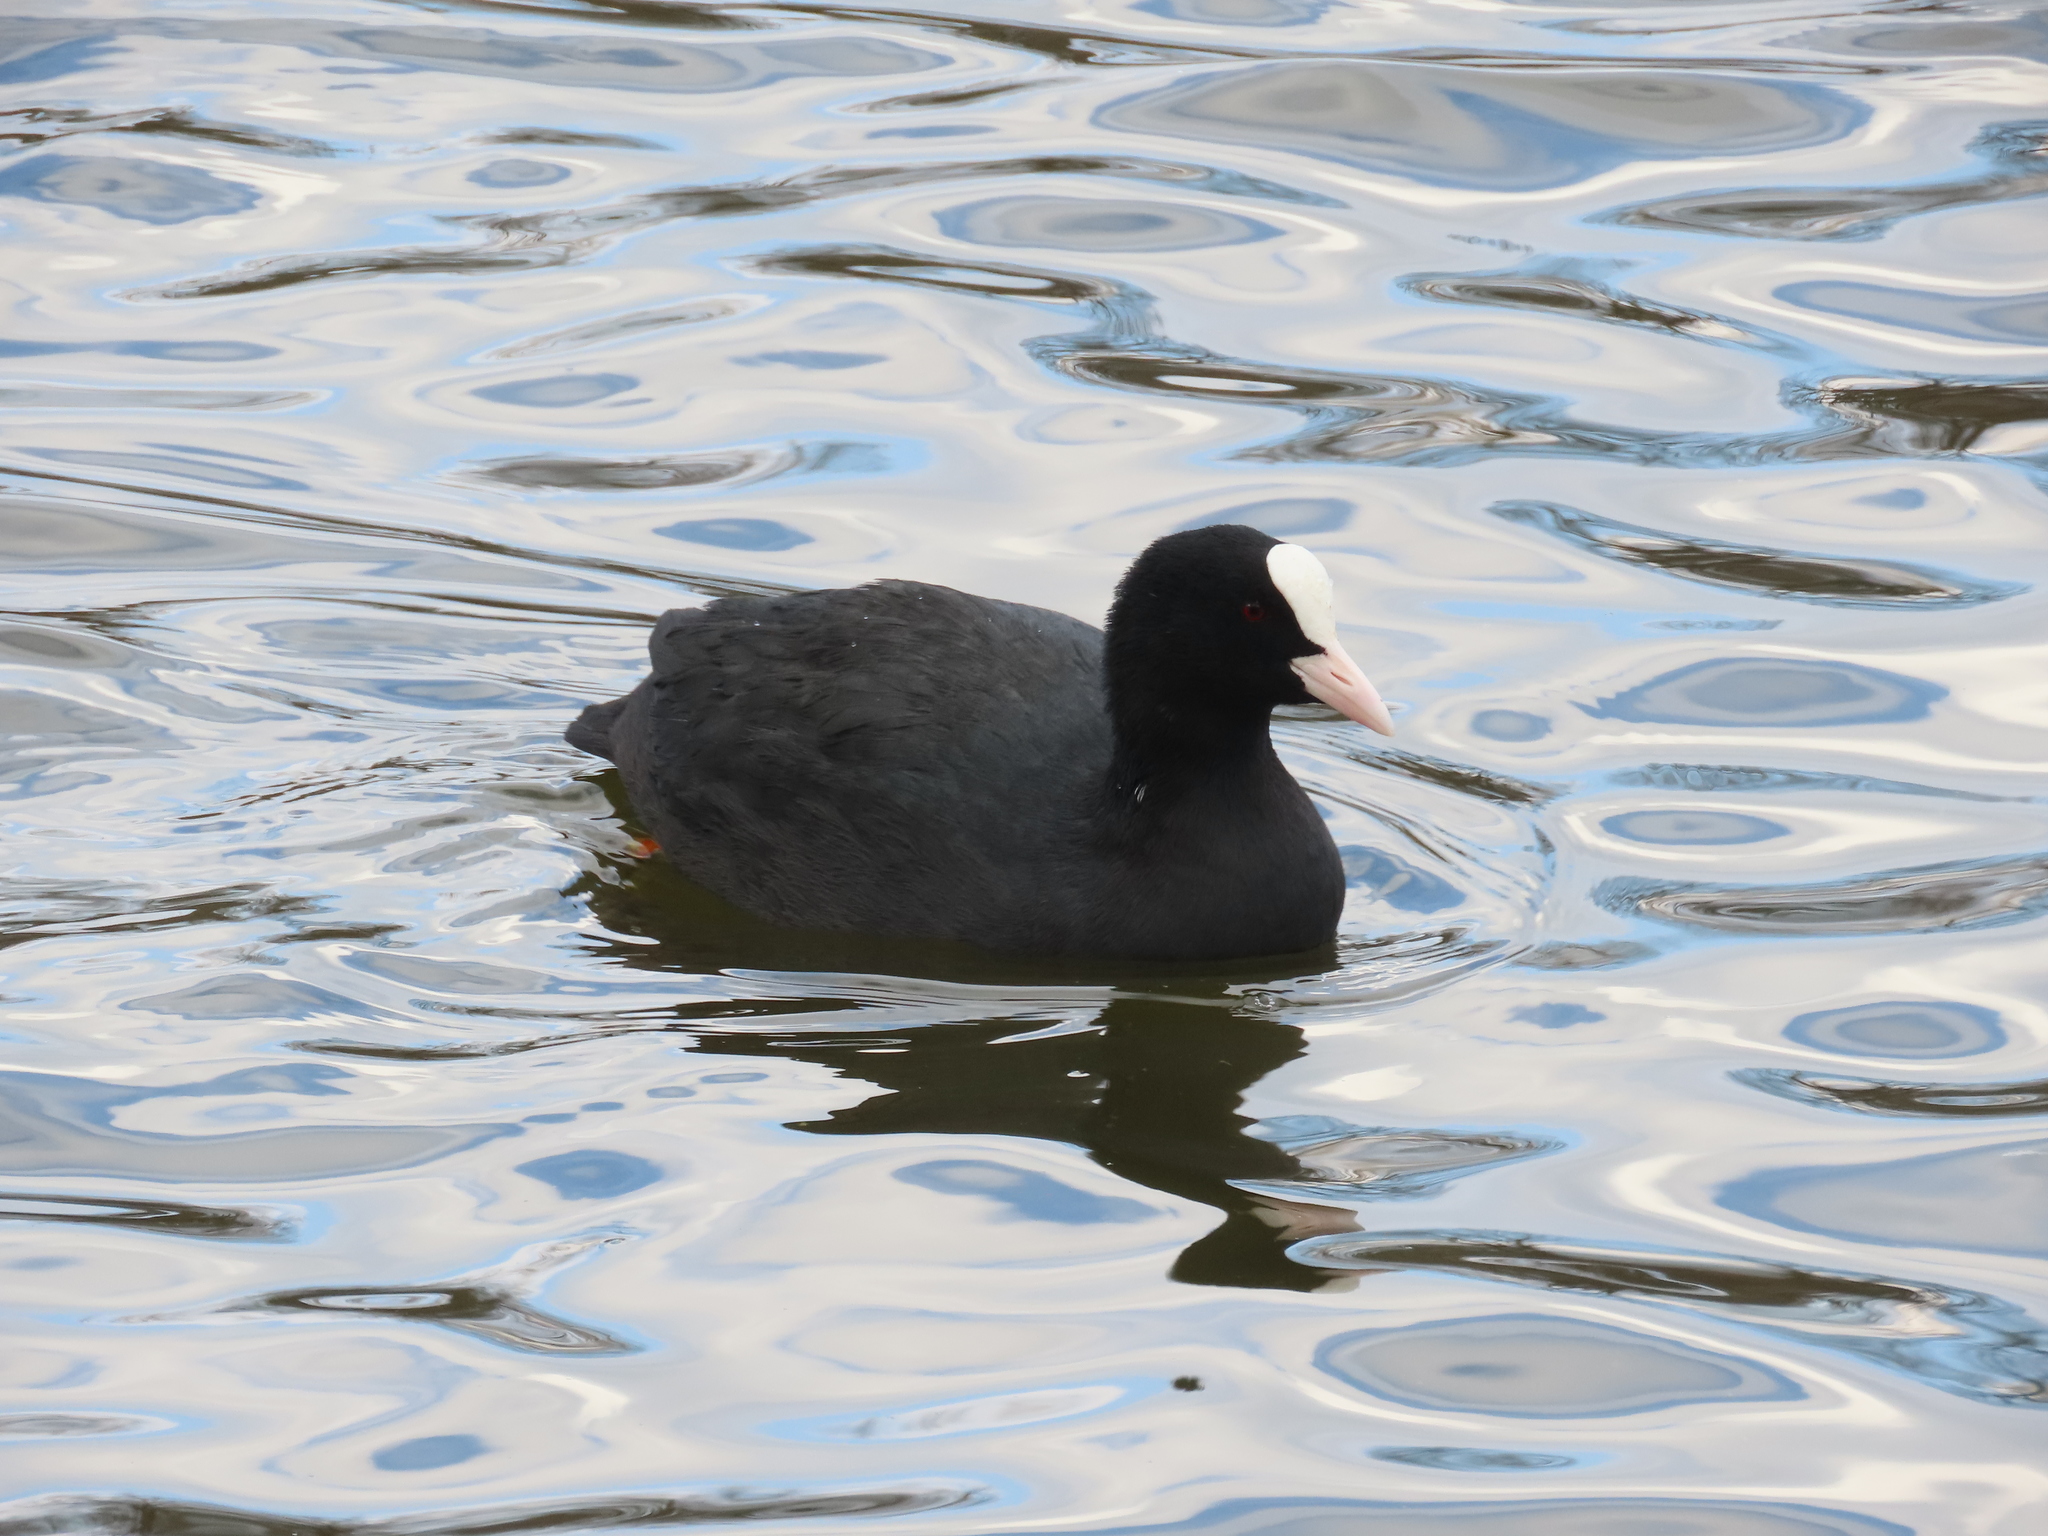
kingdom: Animalia
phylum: Chordata
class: Aves
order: Gruiformes
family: Rallidae
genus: Fulica
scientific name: Fulica atra
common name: Eurasian coot
